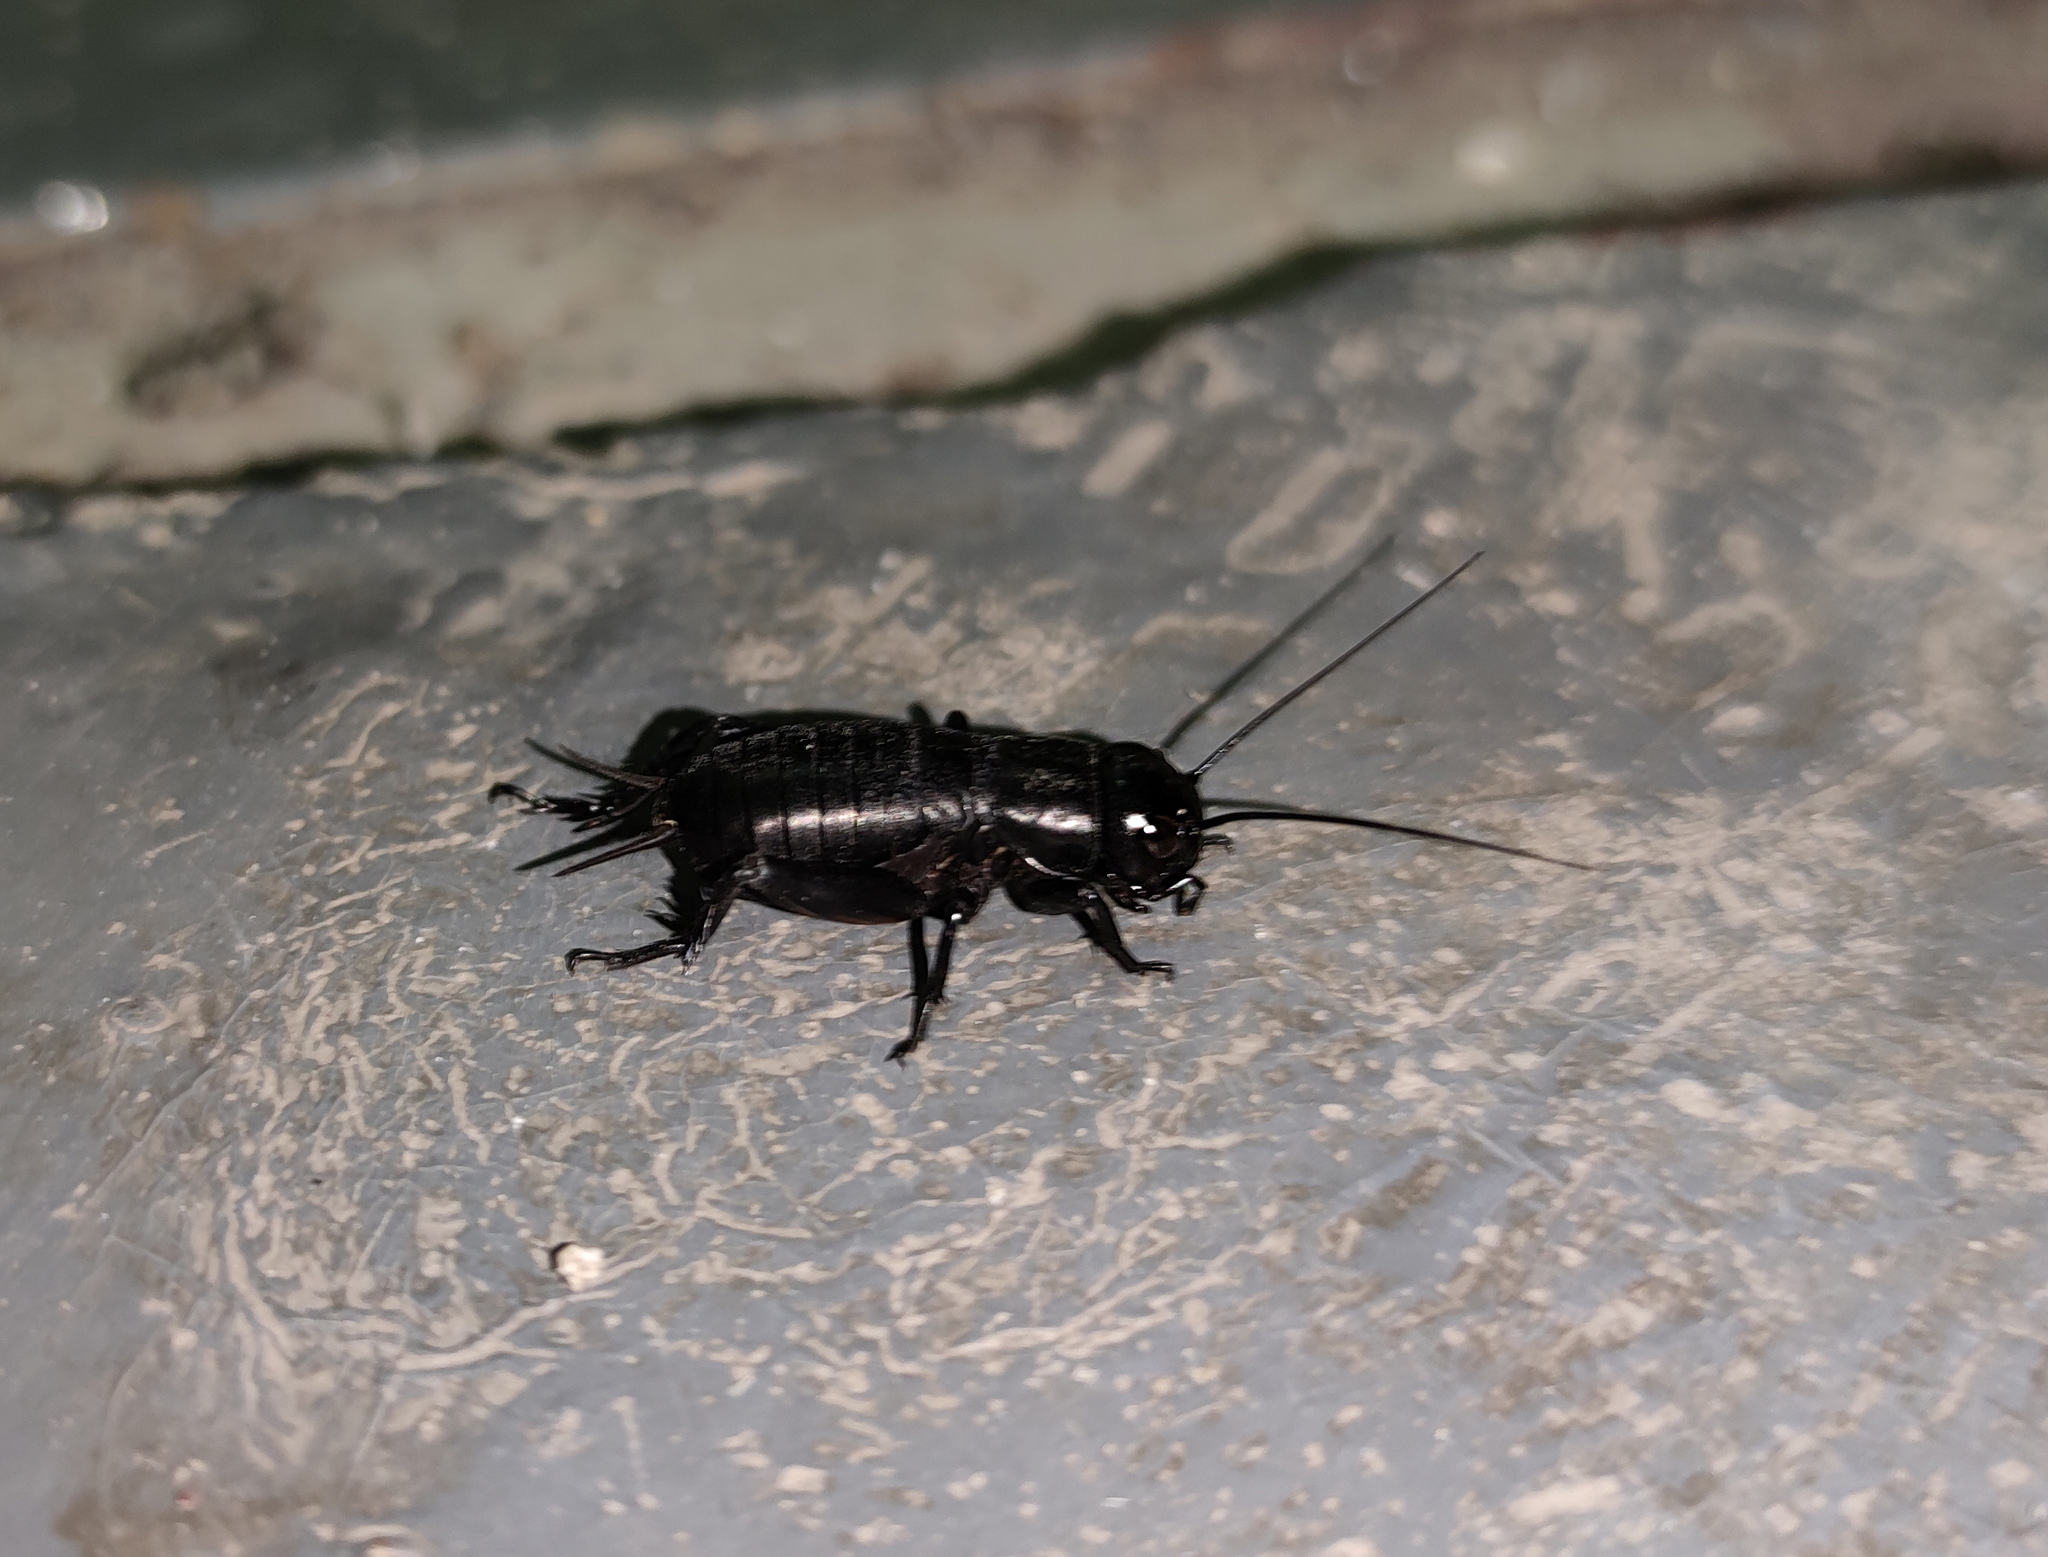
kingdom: Animalia
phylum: Arthropoda
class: Insecta
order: Orthoptera
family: Gryllidae
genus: Gryllus
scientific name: Gryllus campestris
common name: Field cricket
